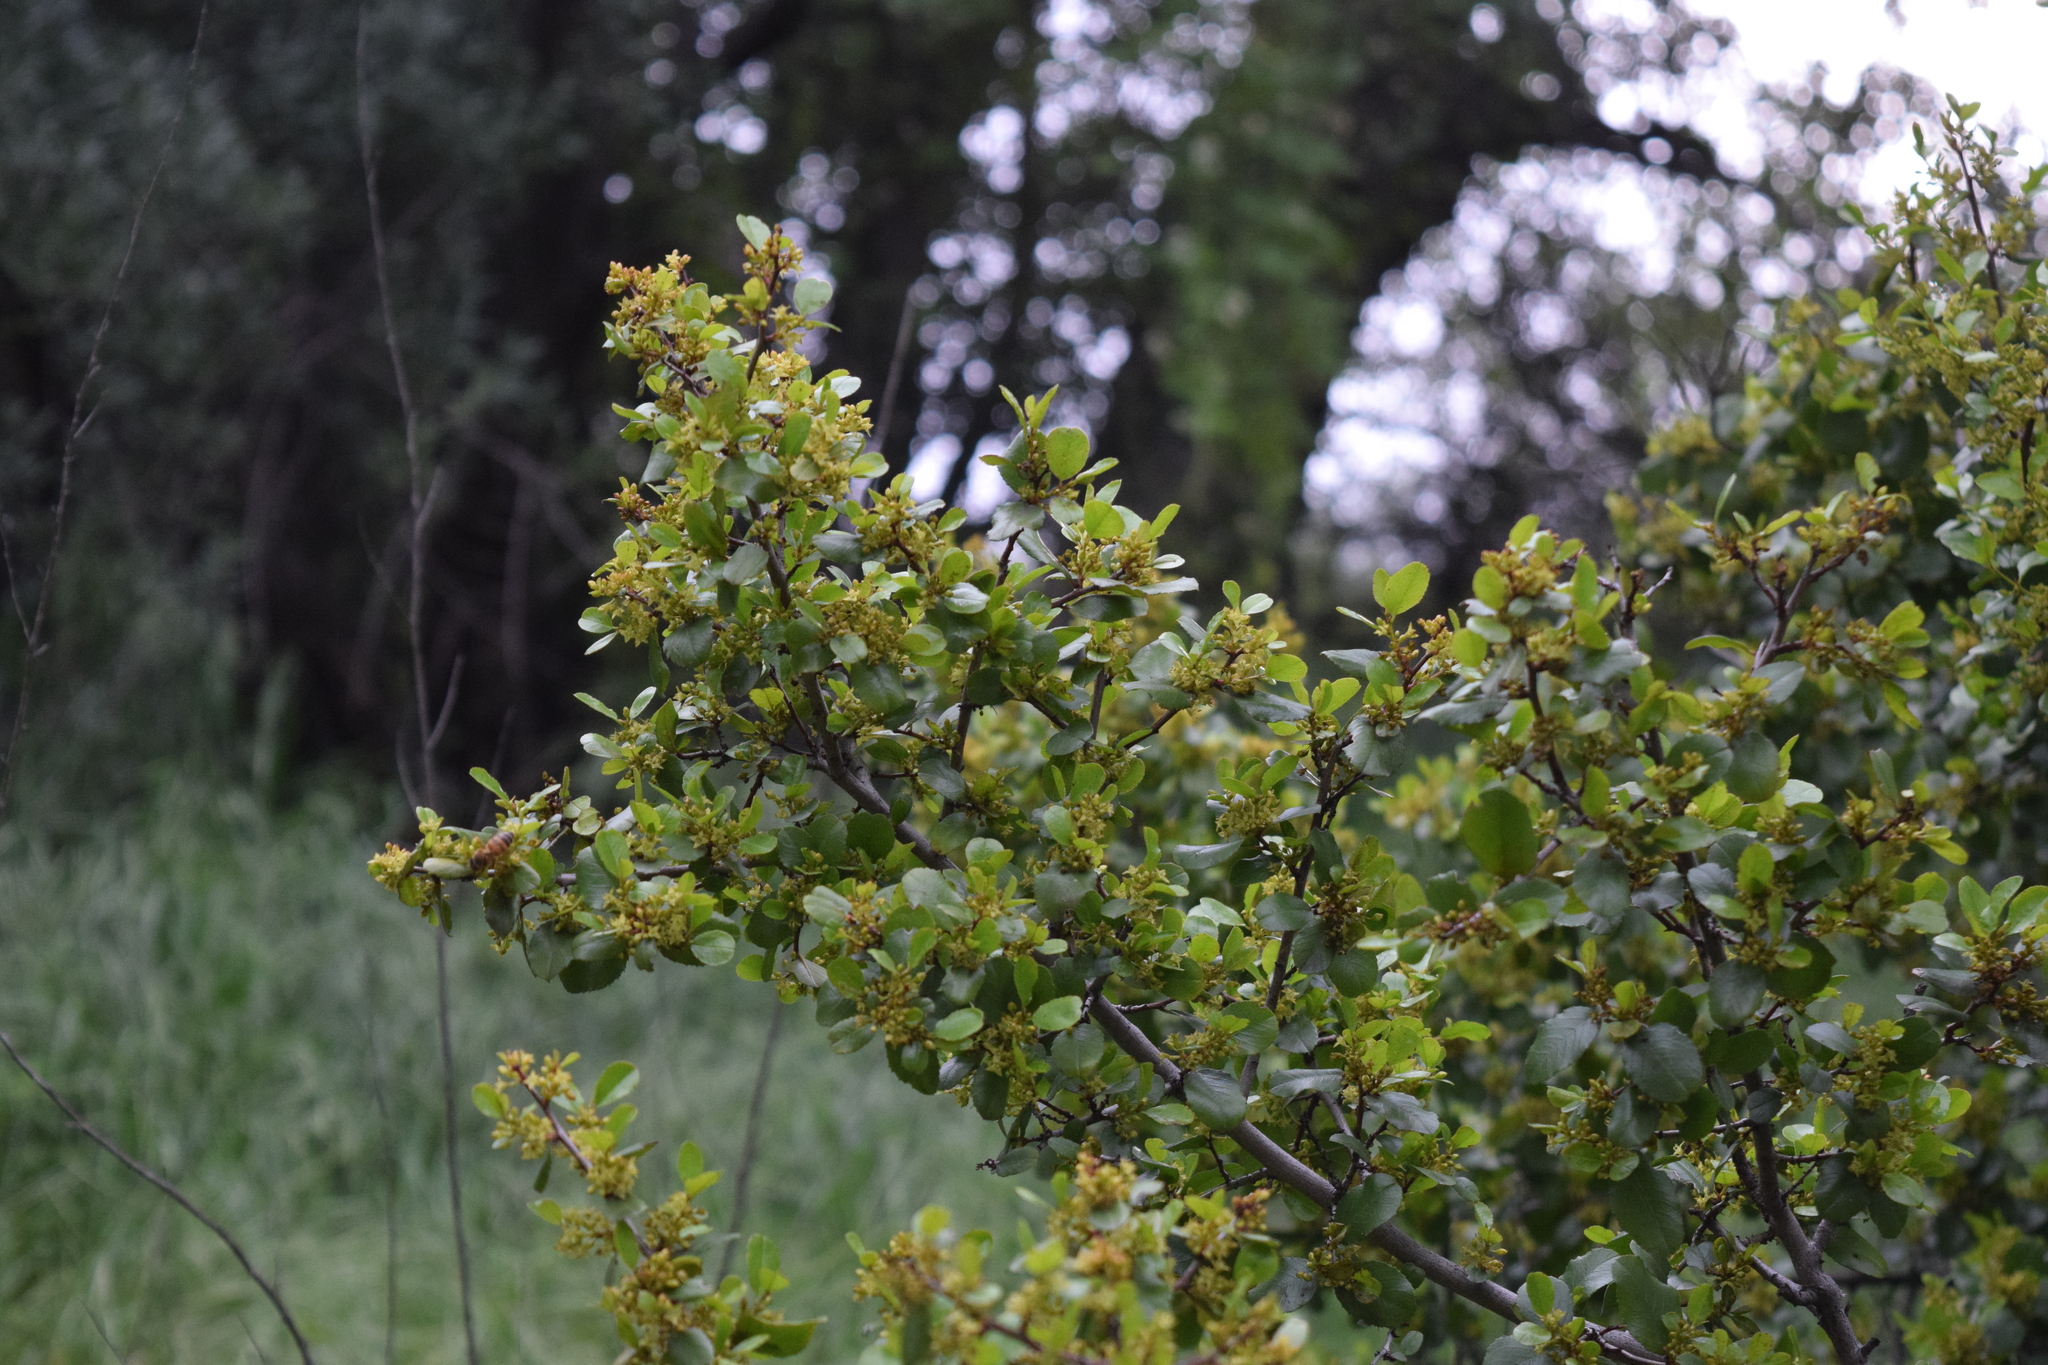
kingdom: Plantae
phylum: Tracheophyta
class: Magnoliopsida
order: Rosales
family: Rhamnaceae
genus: Endotropis
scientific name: Endotropis crocea
